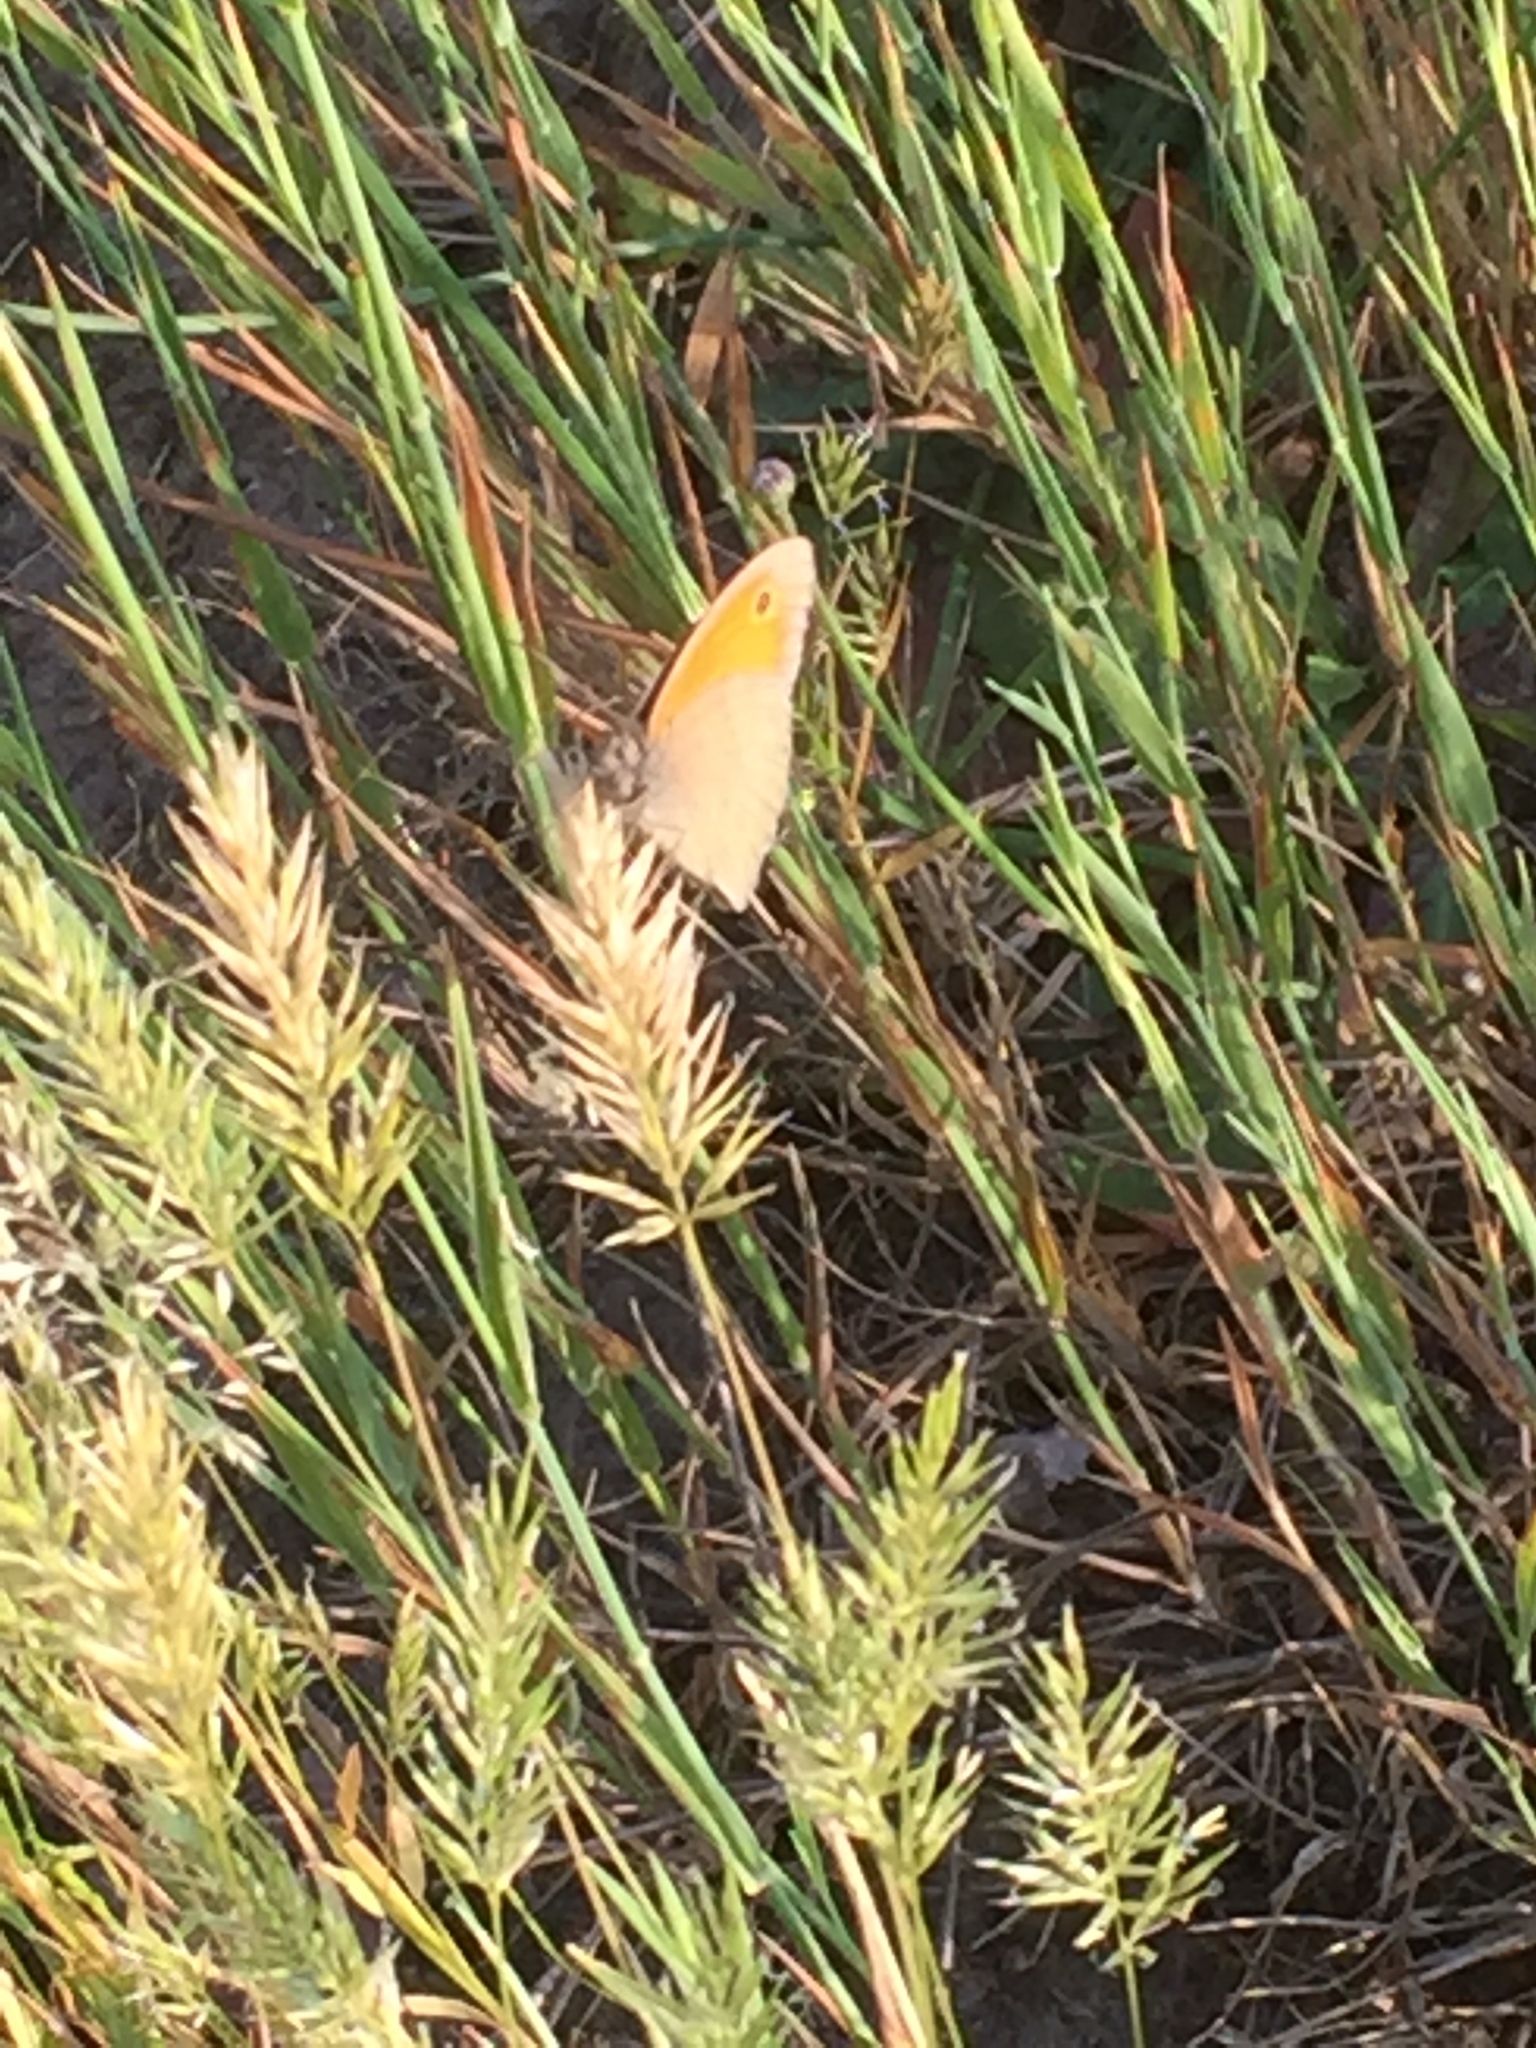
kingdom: Plantae
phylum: Tracheophyta
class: Liliopsida
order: Poales
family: Poaceae
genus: Anthoxanthum
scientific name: Anthoxanthum aristatum
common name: Annual vernal-grass
